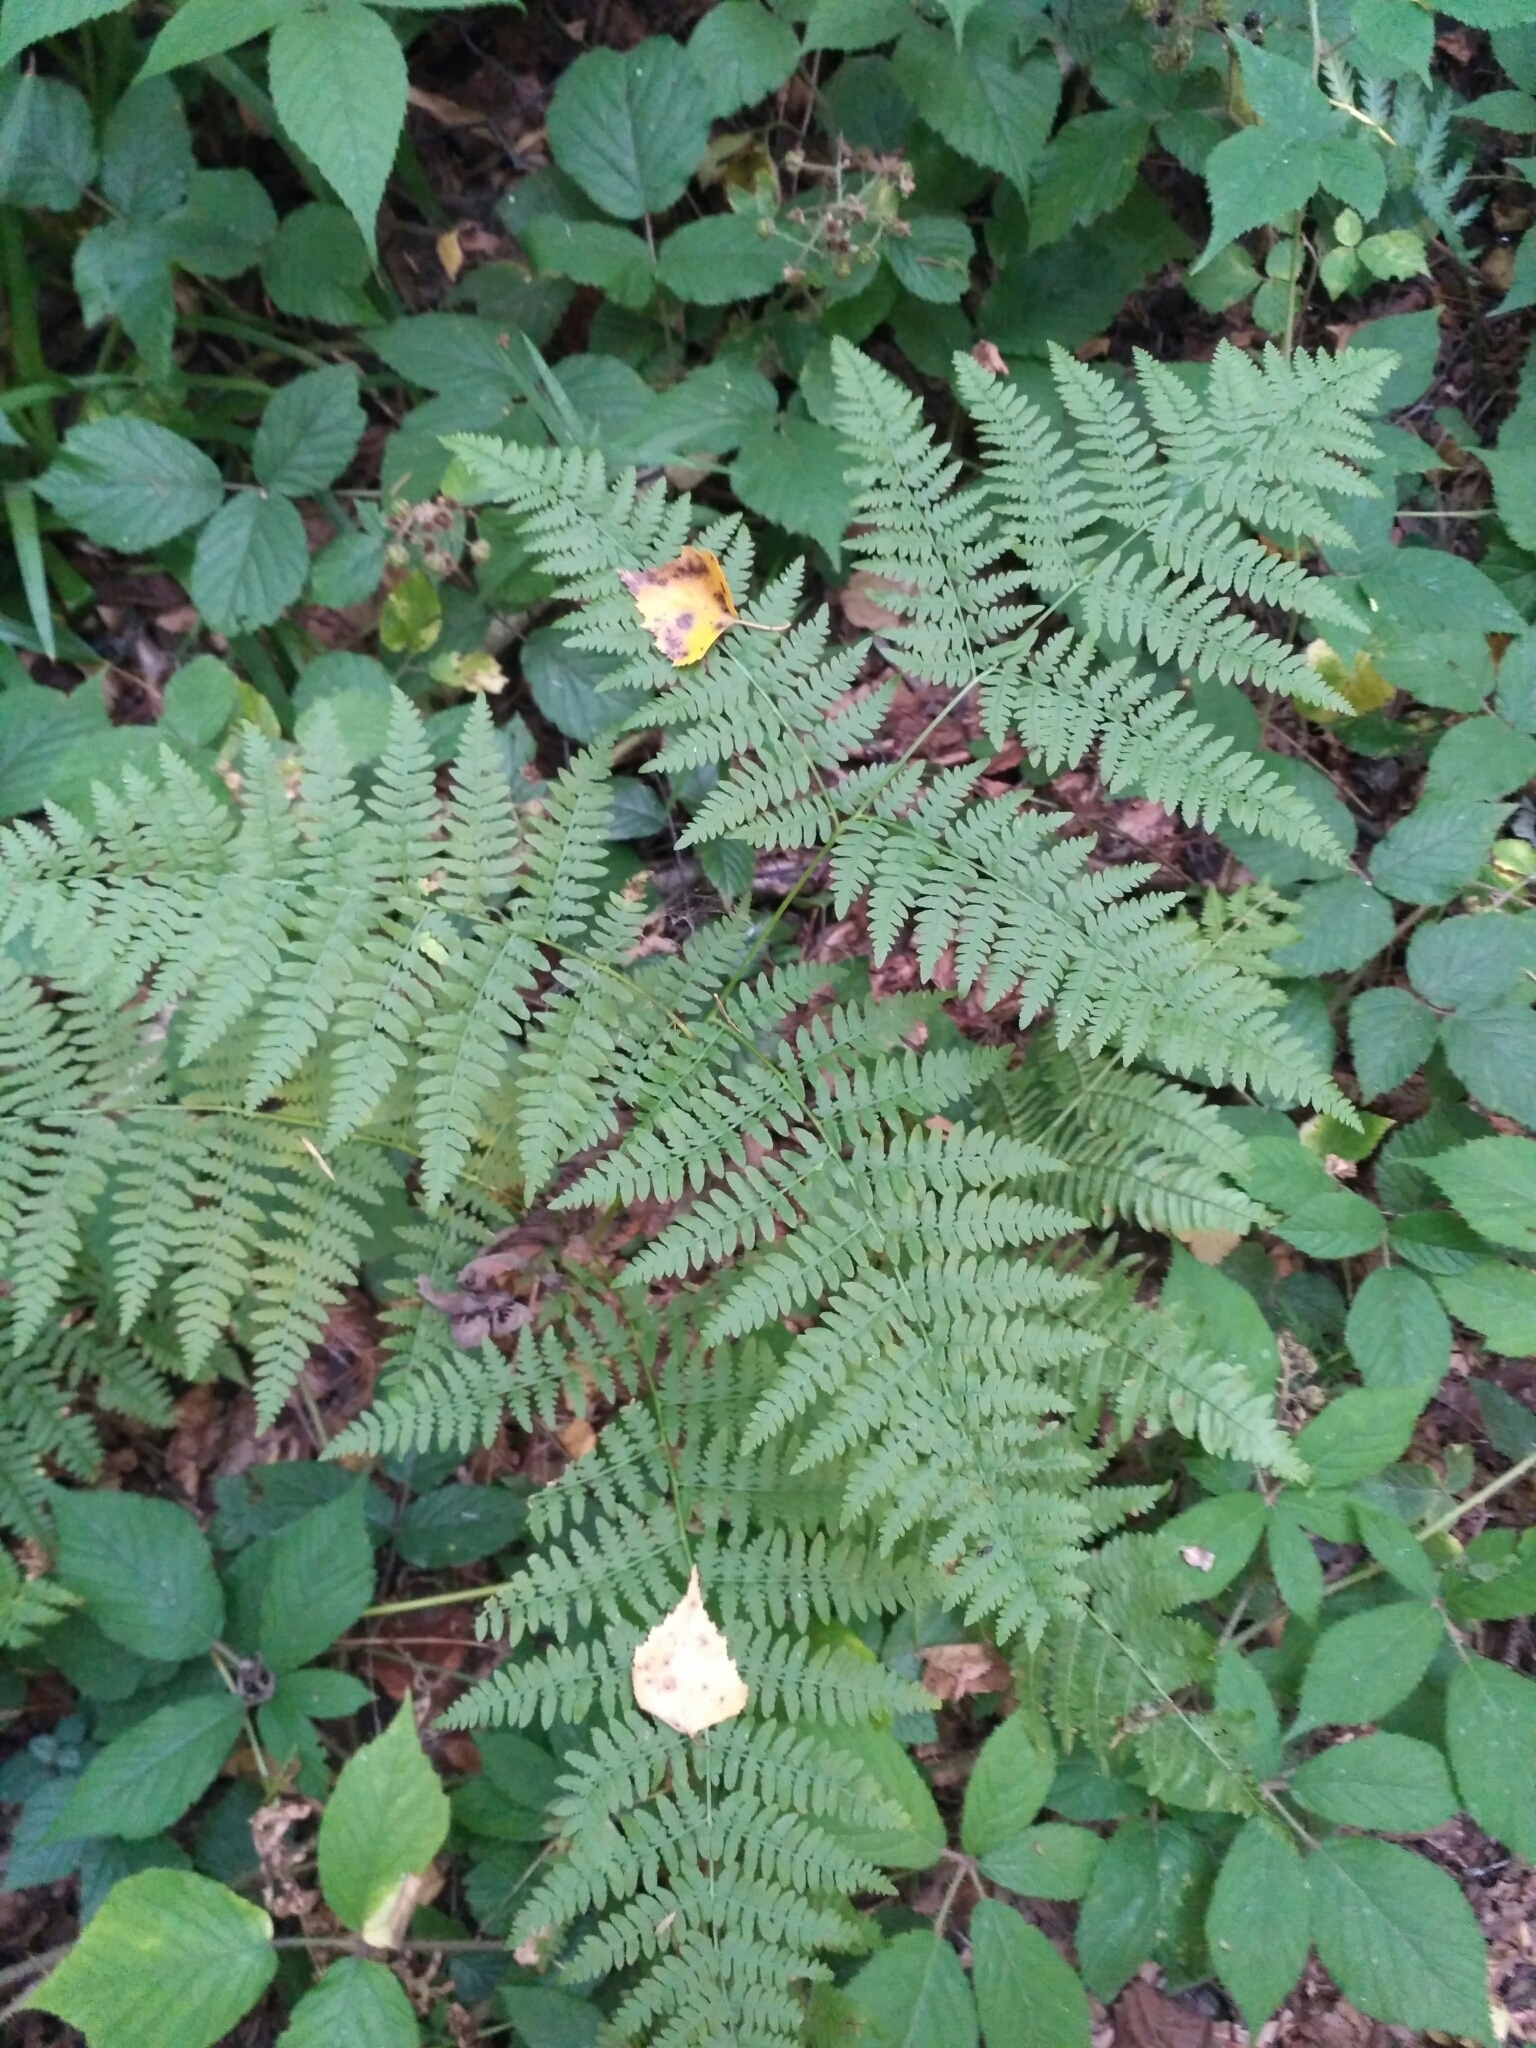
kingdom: Plantae
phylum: Tracheophyta
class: Polypodiopsida
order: Polypodiales
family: Dennstaedtiaceae
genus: Pteridium
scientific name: Pteridium aquilinum
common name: Bracken
